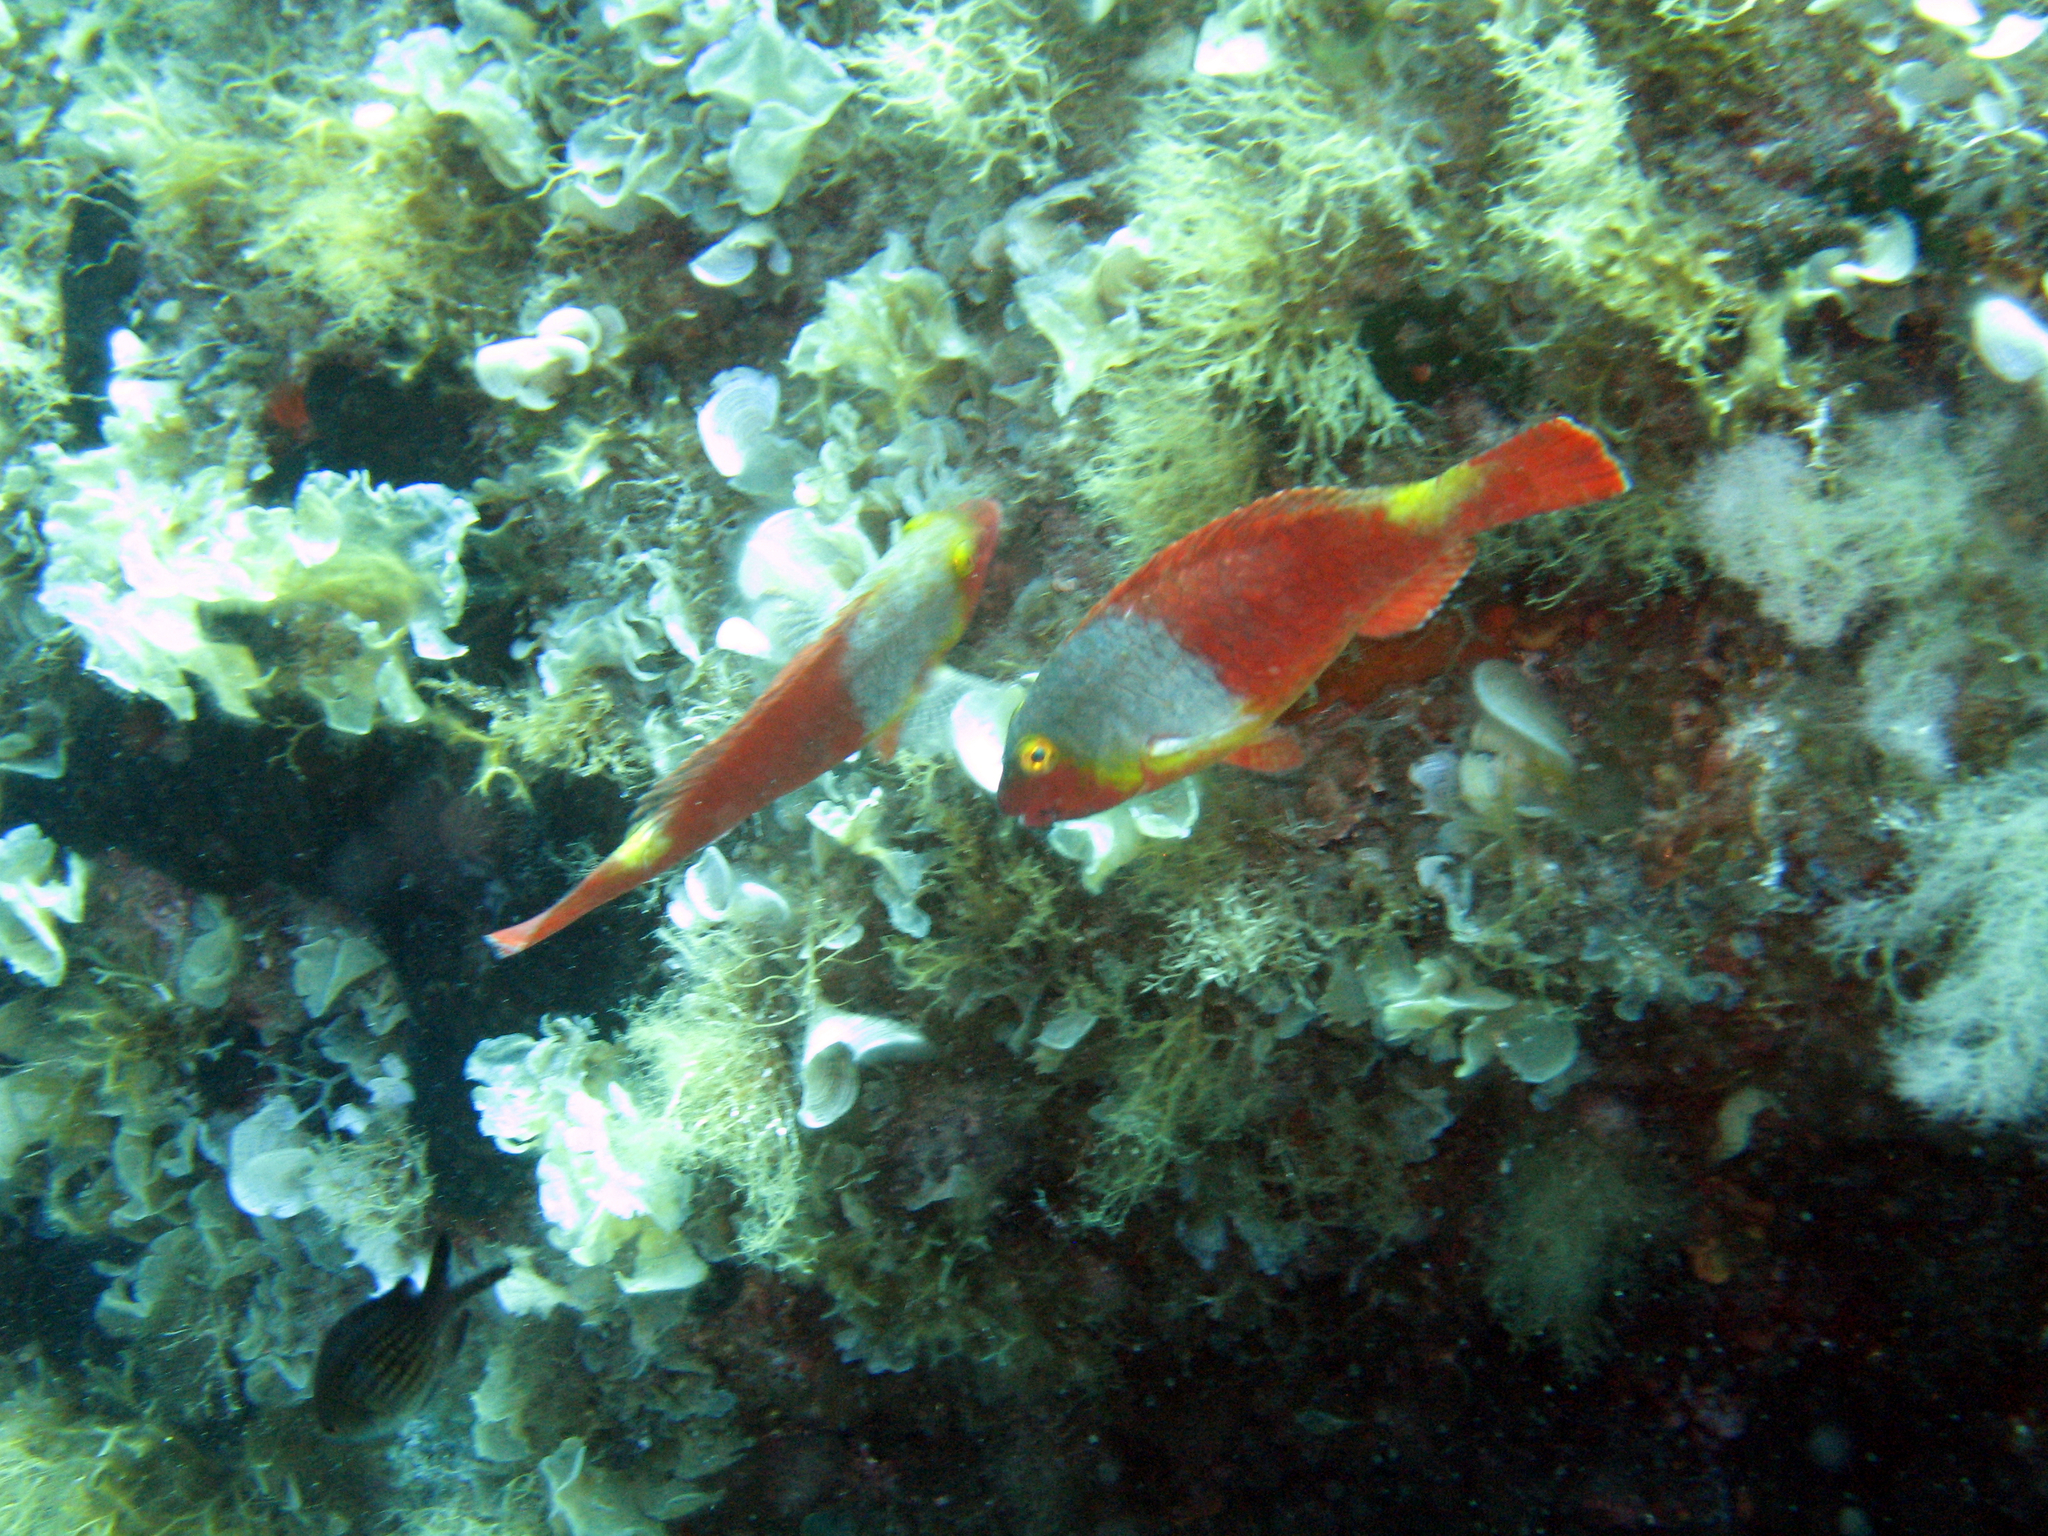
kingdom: Animalia
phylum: Chordata
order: Perciformes
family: Scaridae
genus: Sparisoma
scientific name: Sparisoma cretense
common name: Parrotfish
